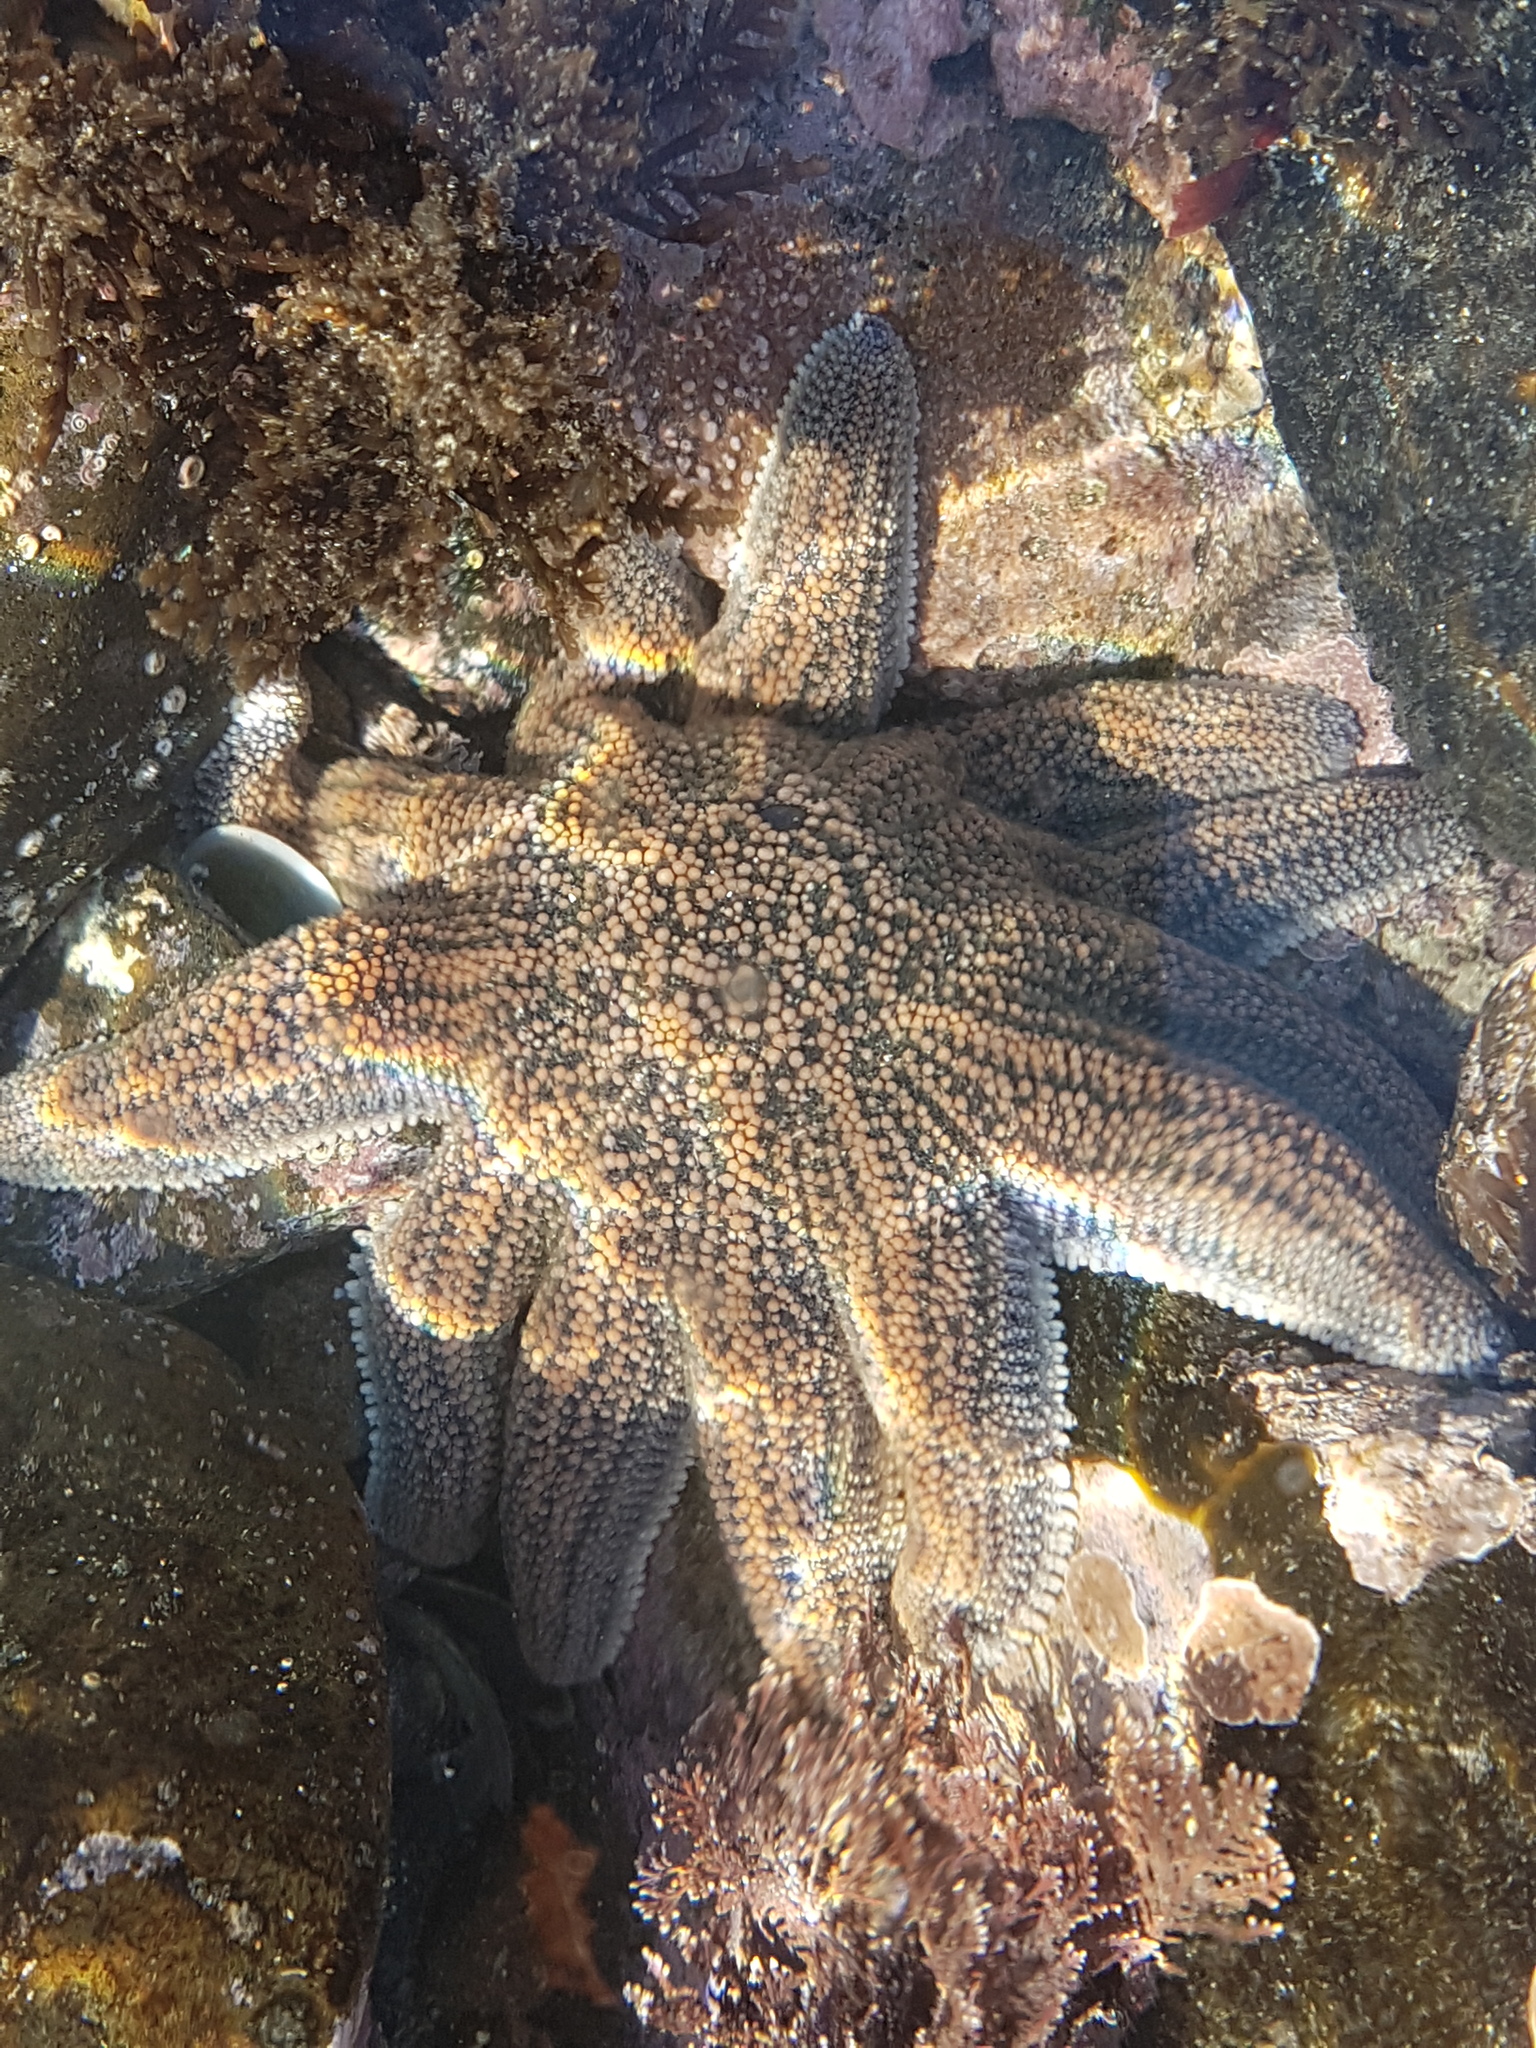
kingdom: Animalia
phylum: Echinodermata
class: Asteroidea
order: Forcipulatida
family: Stichasteridae
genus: Stichaster
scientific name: Stichaster australis
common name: Reef starfish
